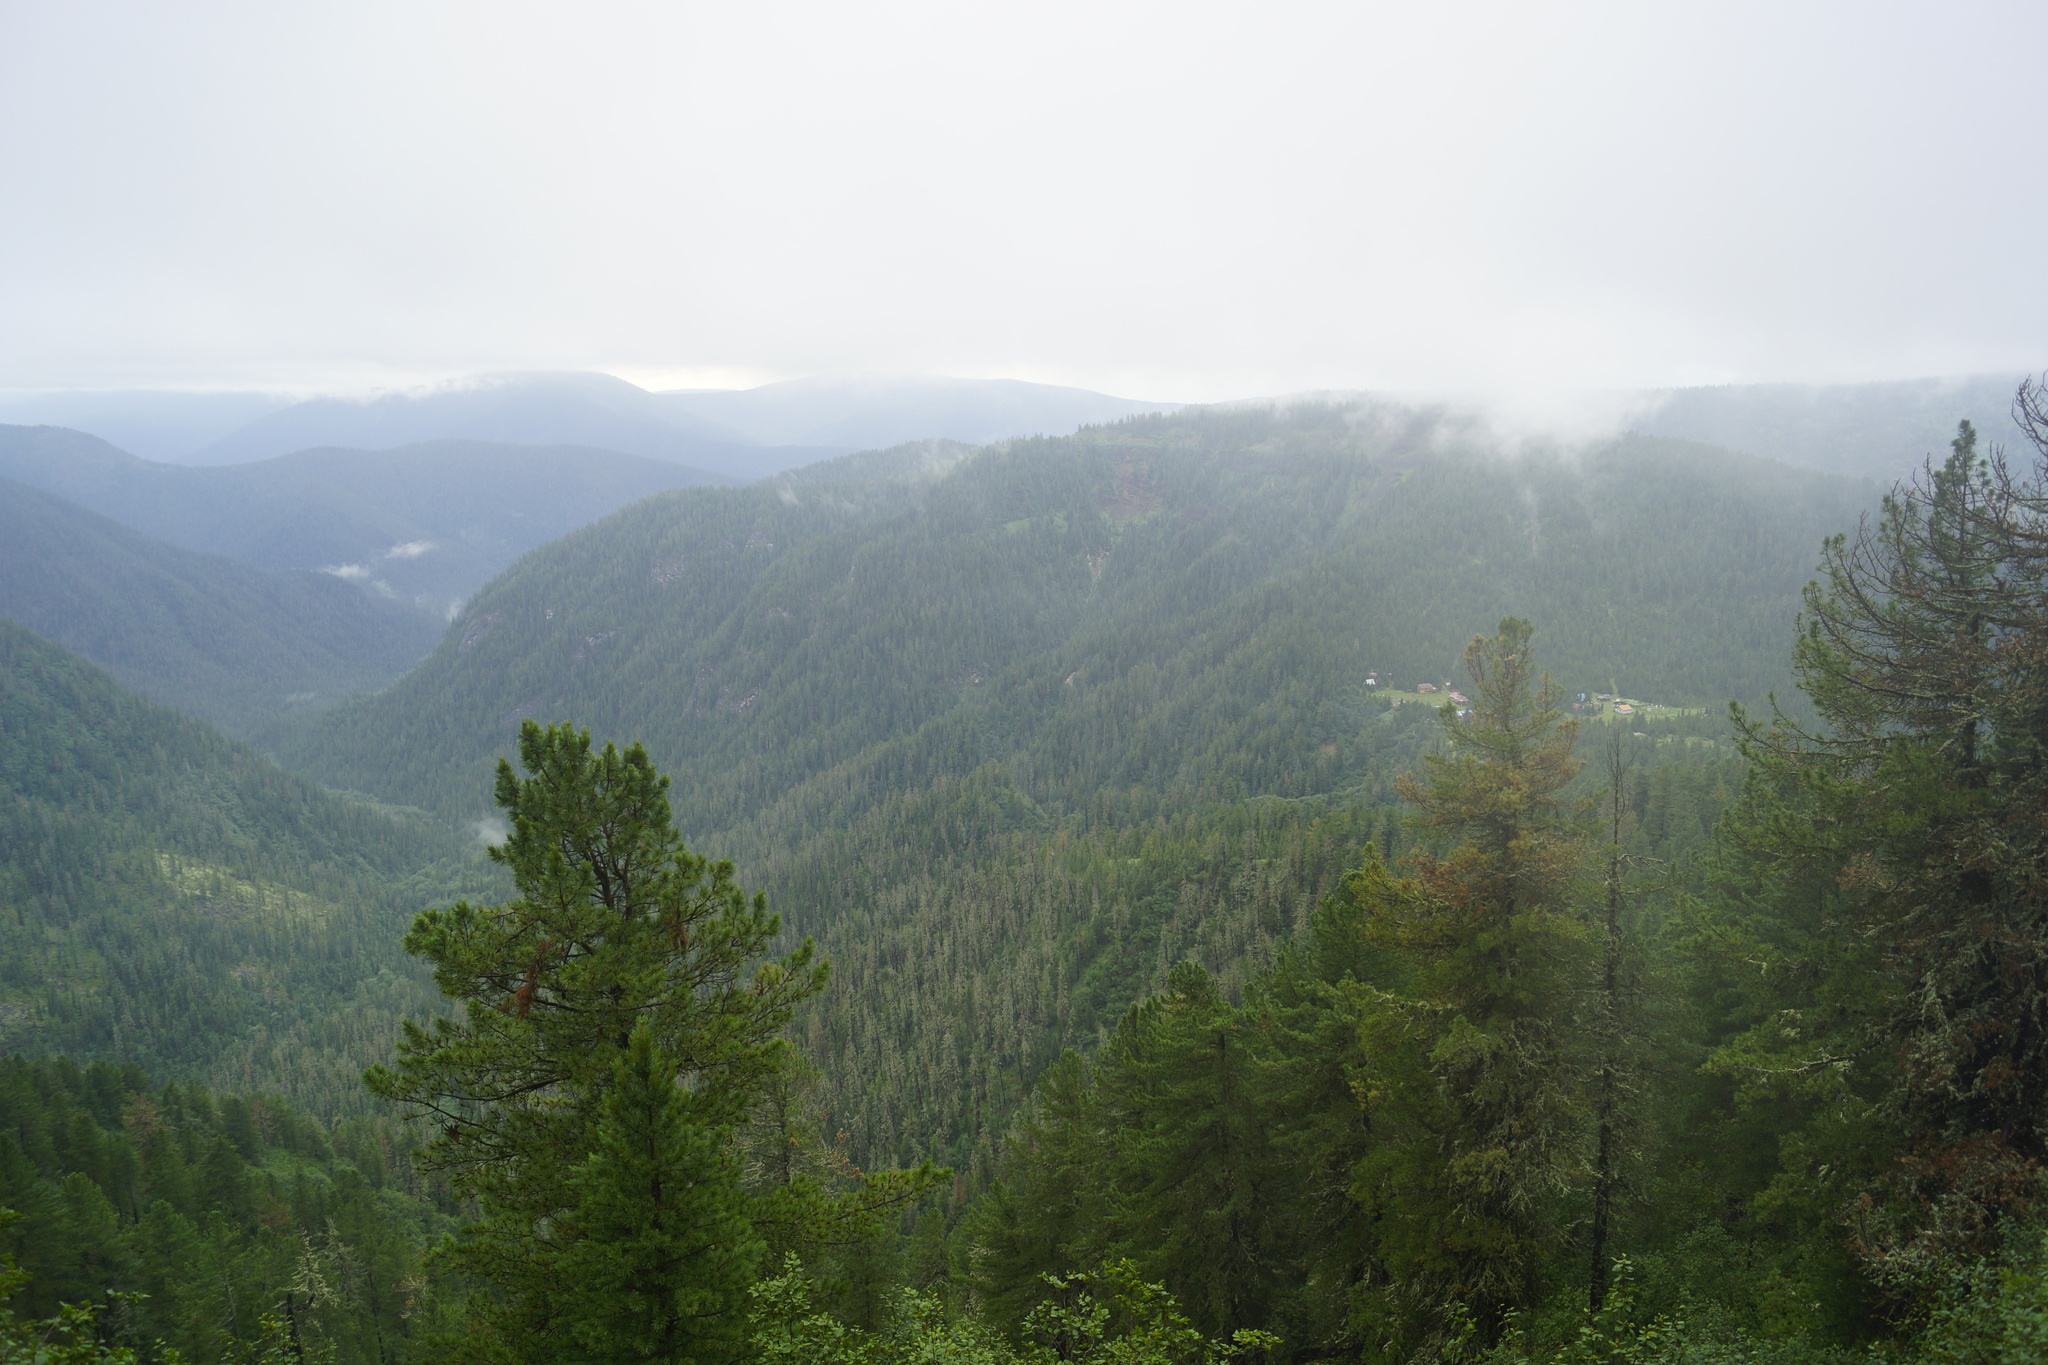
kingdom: Plantae
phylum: Tracheophyta
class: Pinopsida
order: Pinales
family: Pinaceae
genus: Pinus
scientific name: Pinus sibirica
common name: Siberian pine
